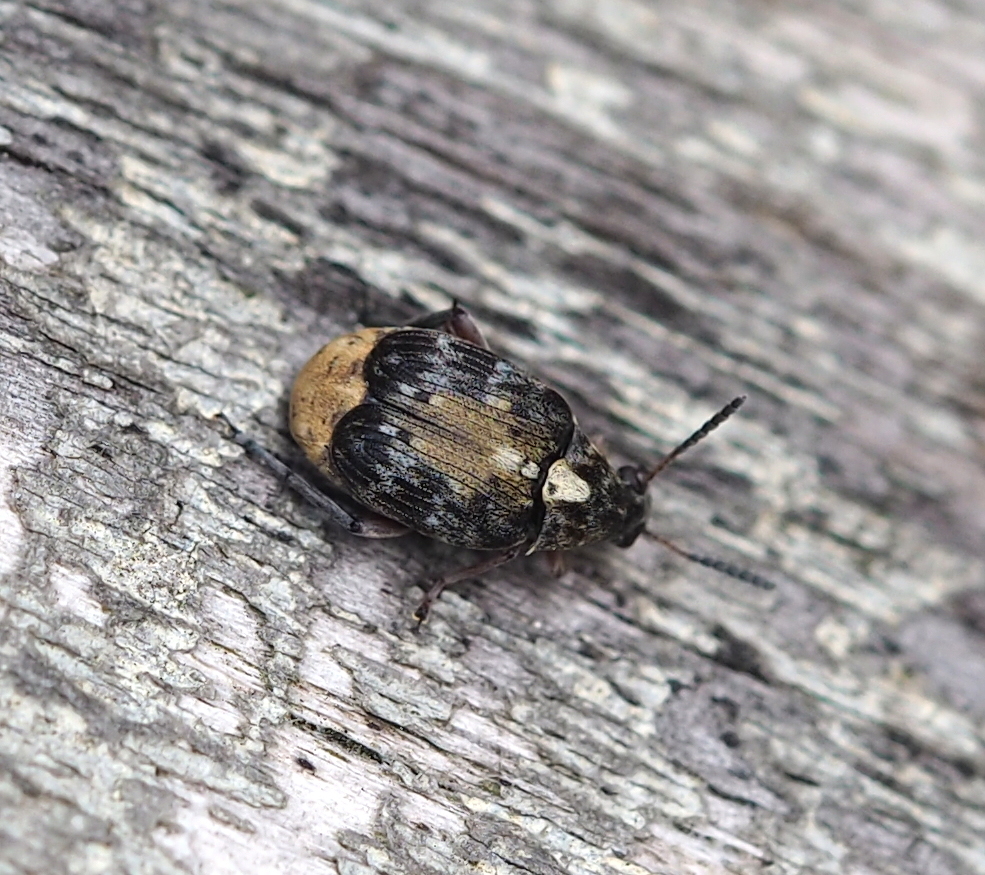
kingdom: Animalia
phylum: Arthropoda
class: Insecta
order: Coleoptera
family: Chrysomelidae
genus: Megabruchidius
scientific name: Megabruchidius dorsalis
